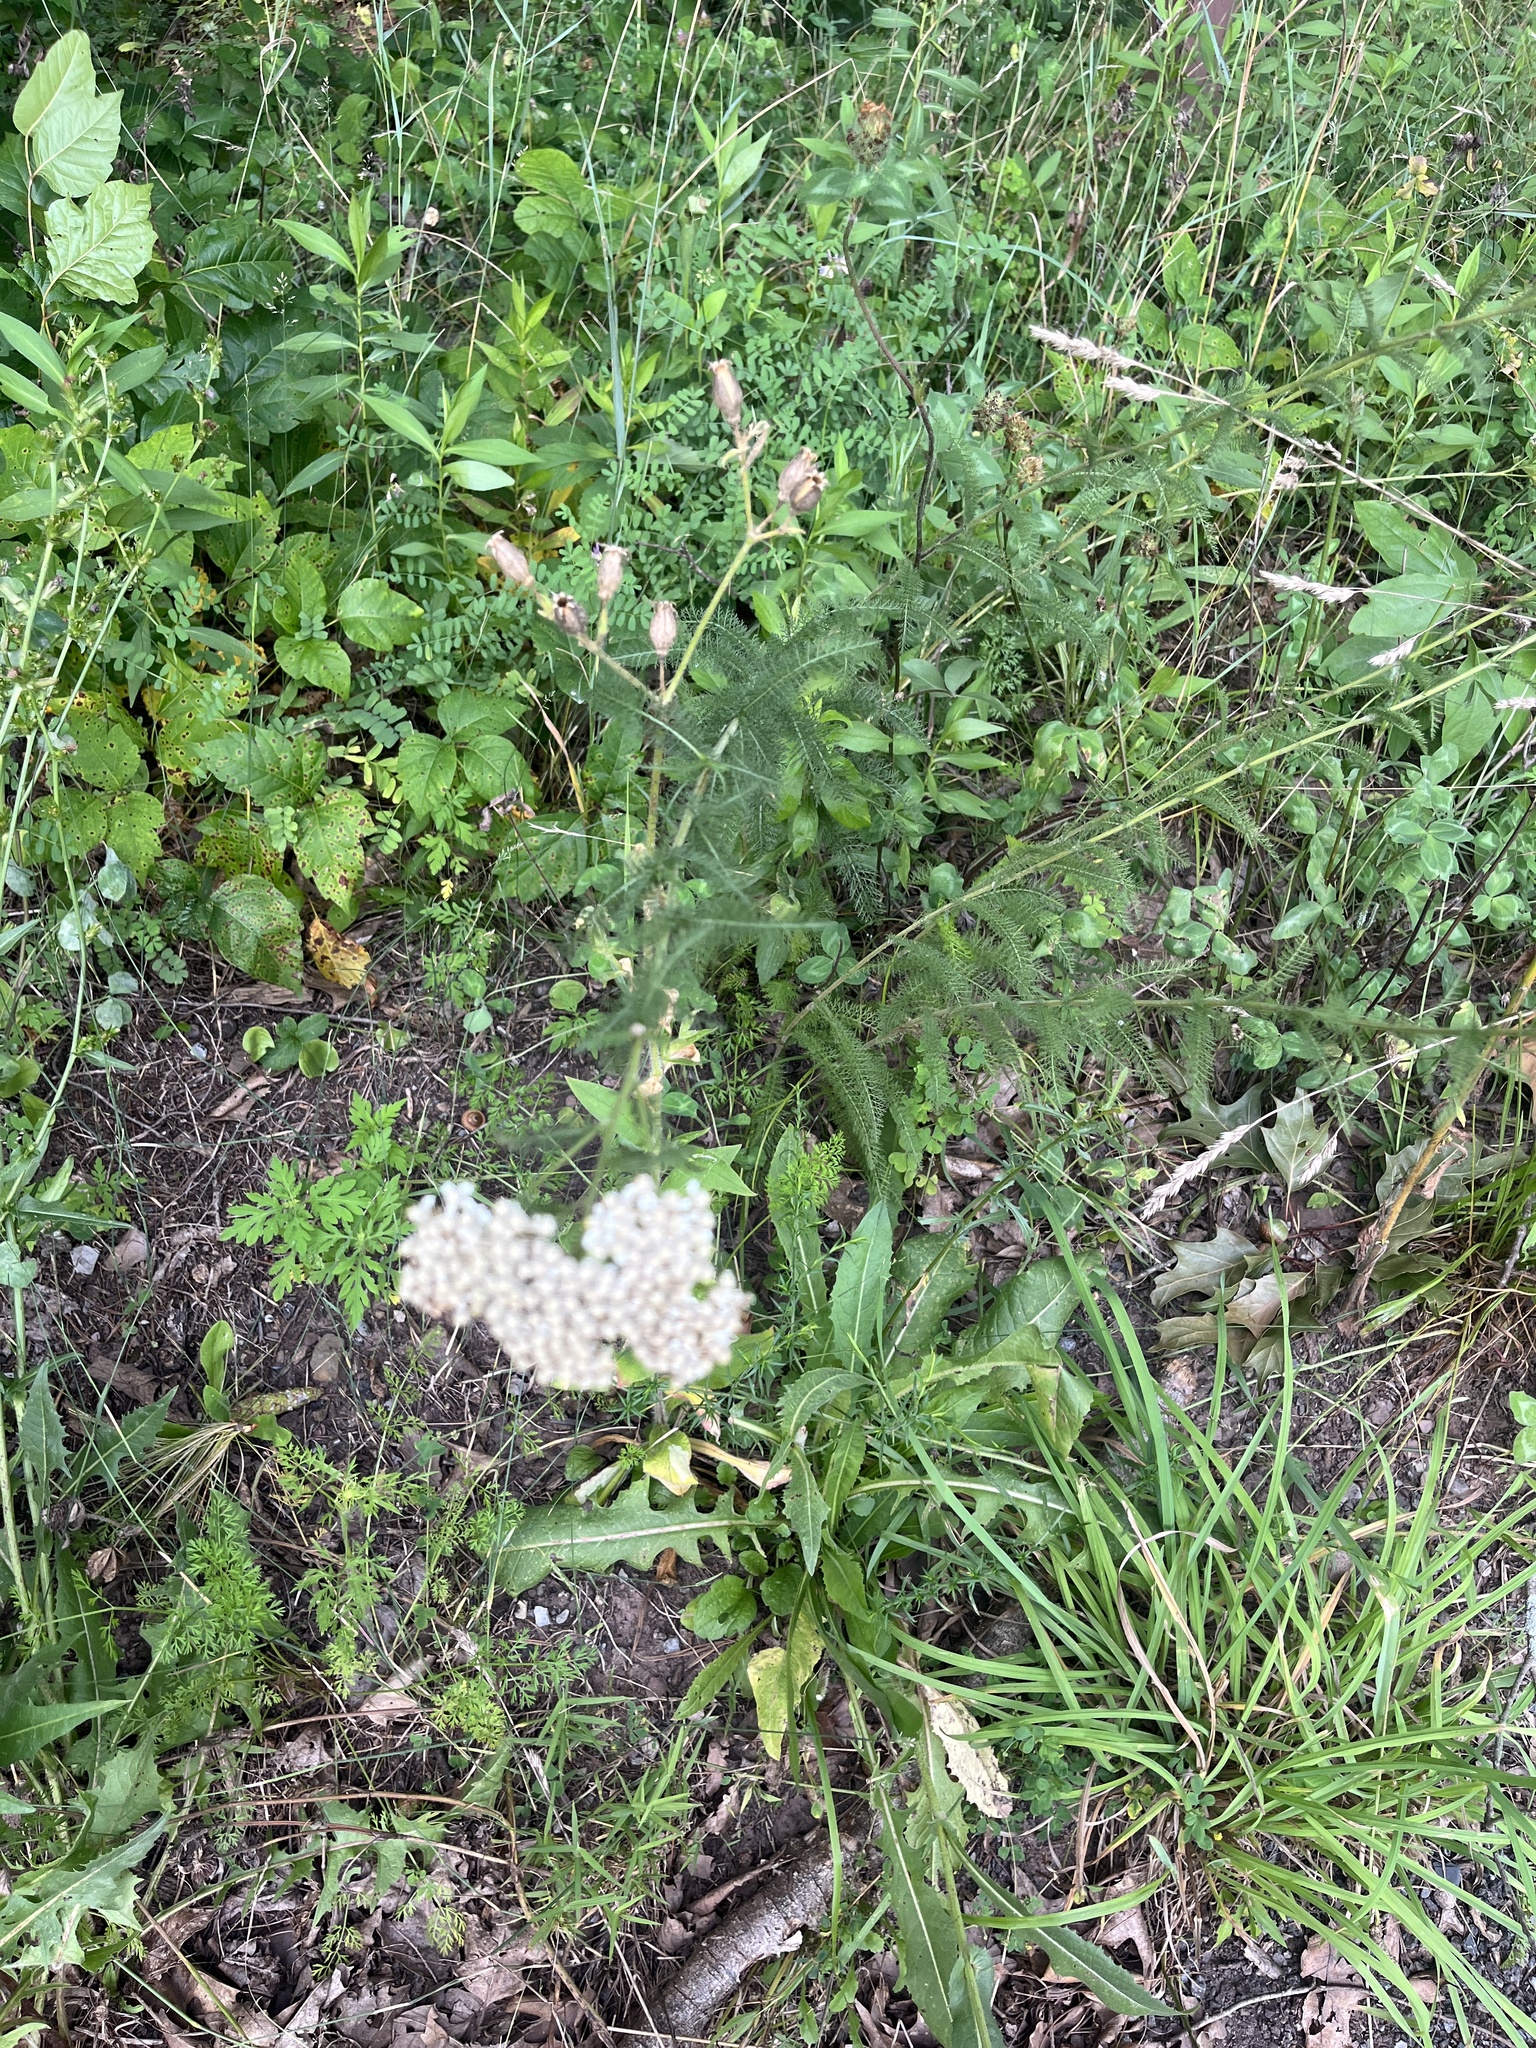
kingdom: Plantae
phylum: Tracheophyta
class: Magnoliopsida
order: Asterales
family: Asteraceae
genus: Achillea
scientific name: Achillea millefolium
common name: Yarrow
